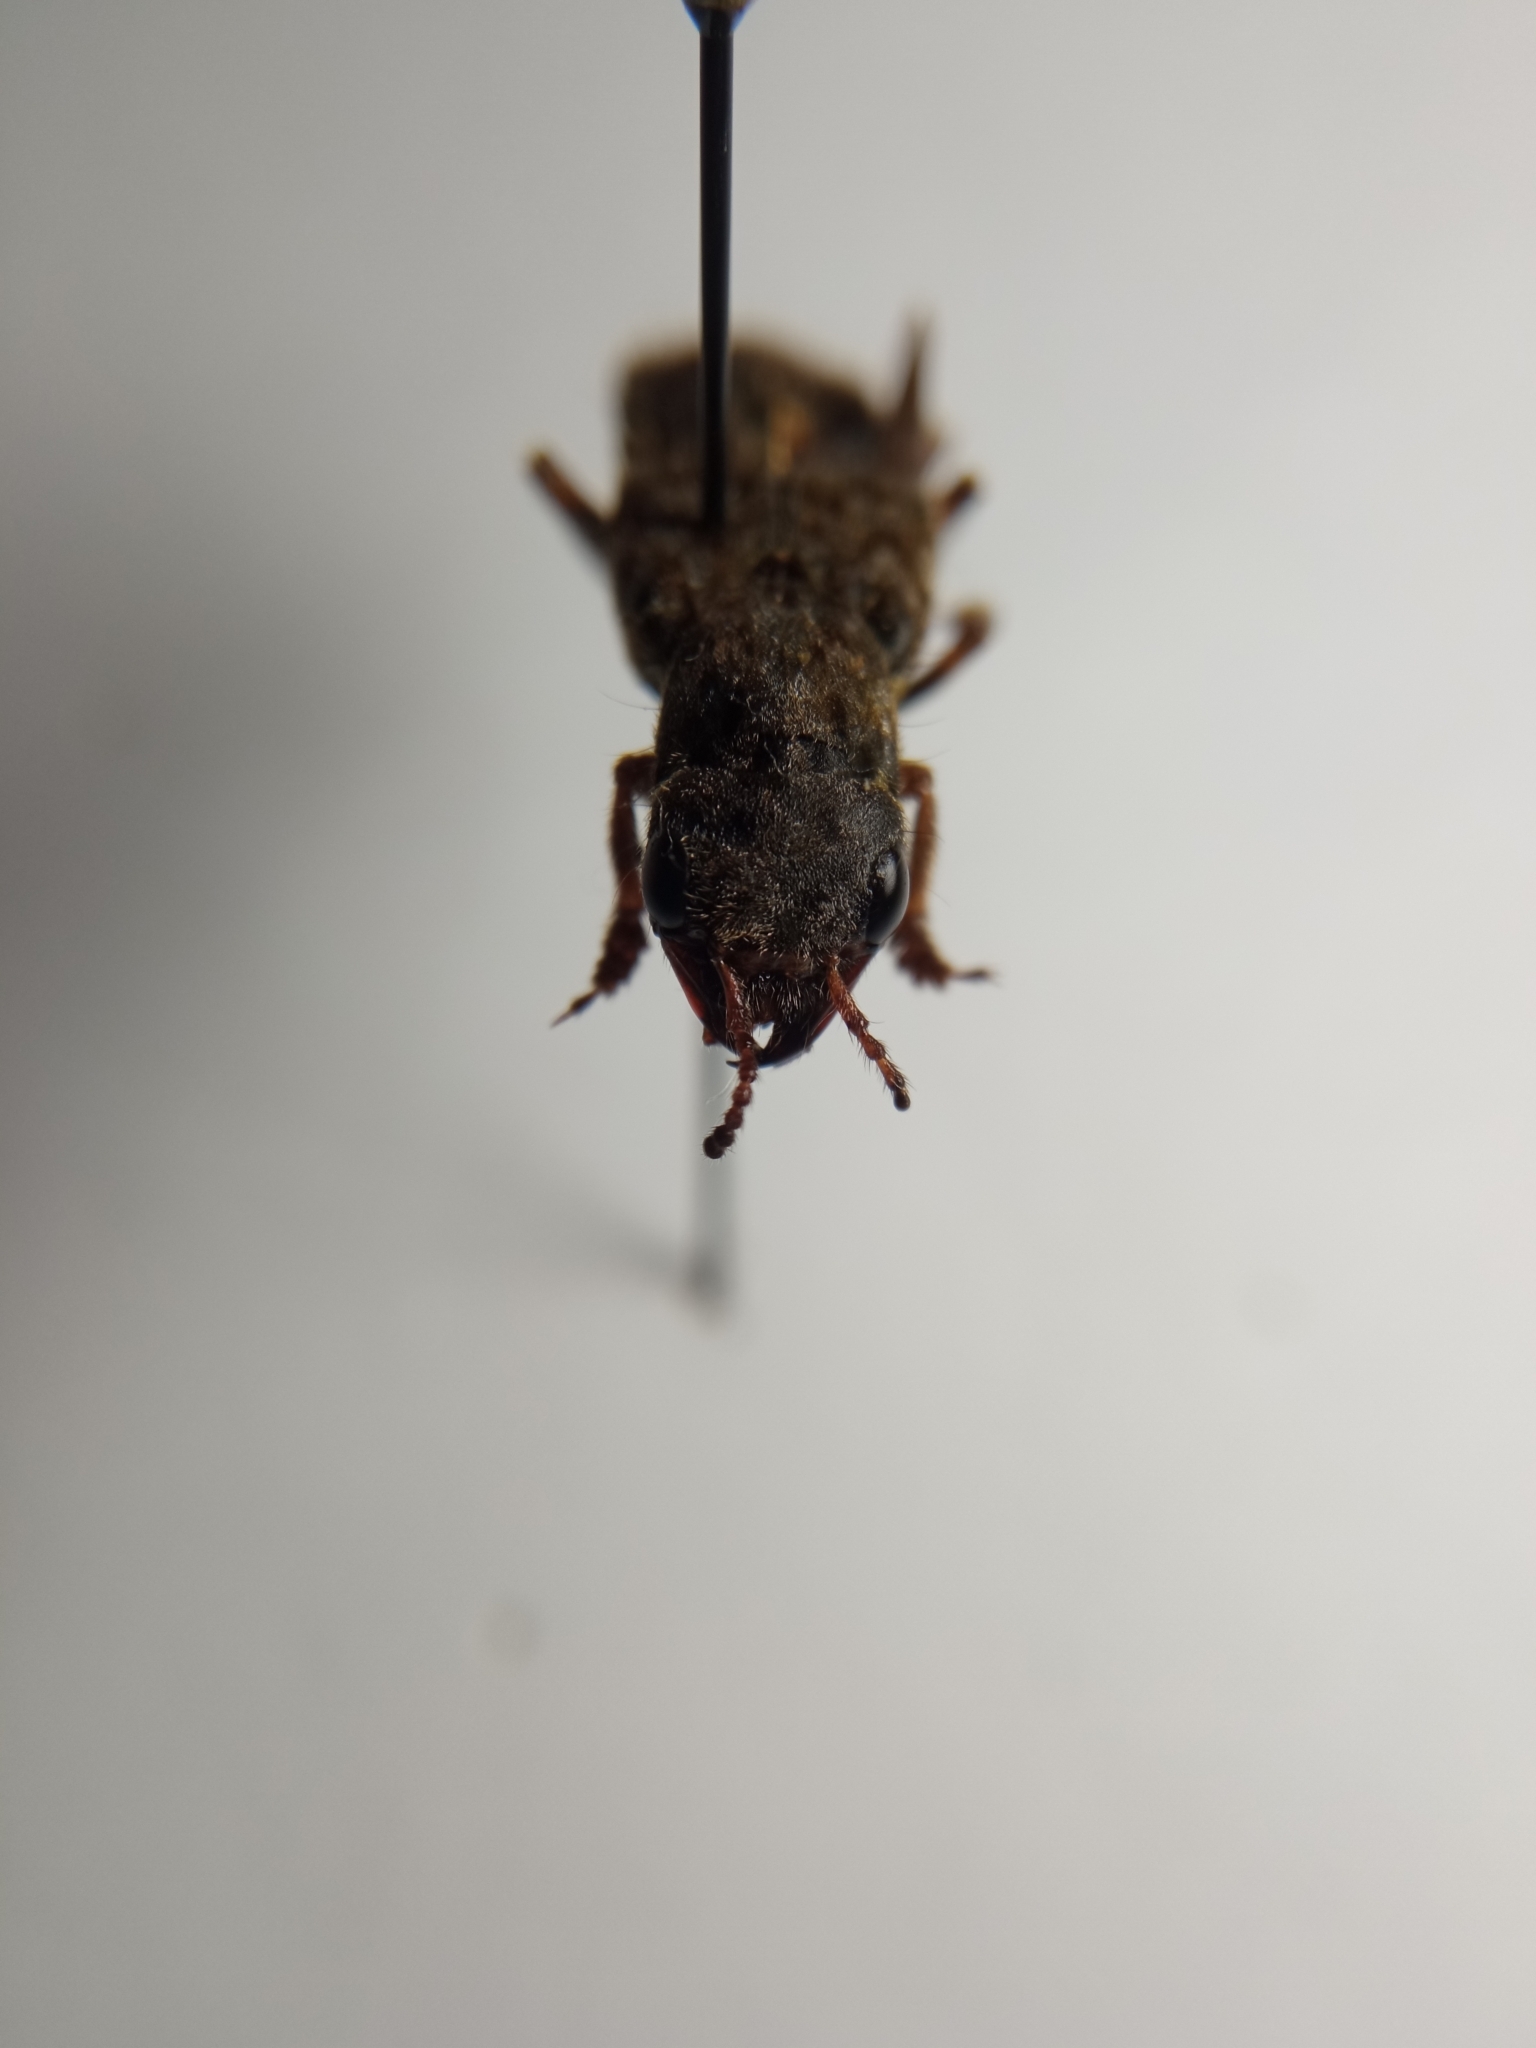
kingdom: Animalia
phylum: Arthropoda
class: Insecta
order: Coleoptera
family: Staphylinidae
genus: Ontholestes
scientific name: Ontholestes tessellatus
